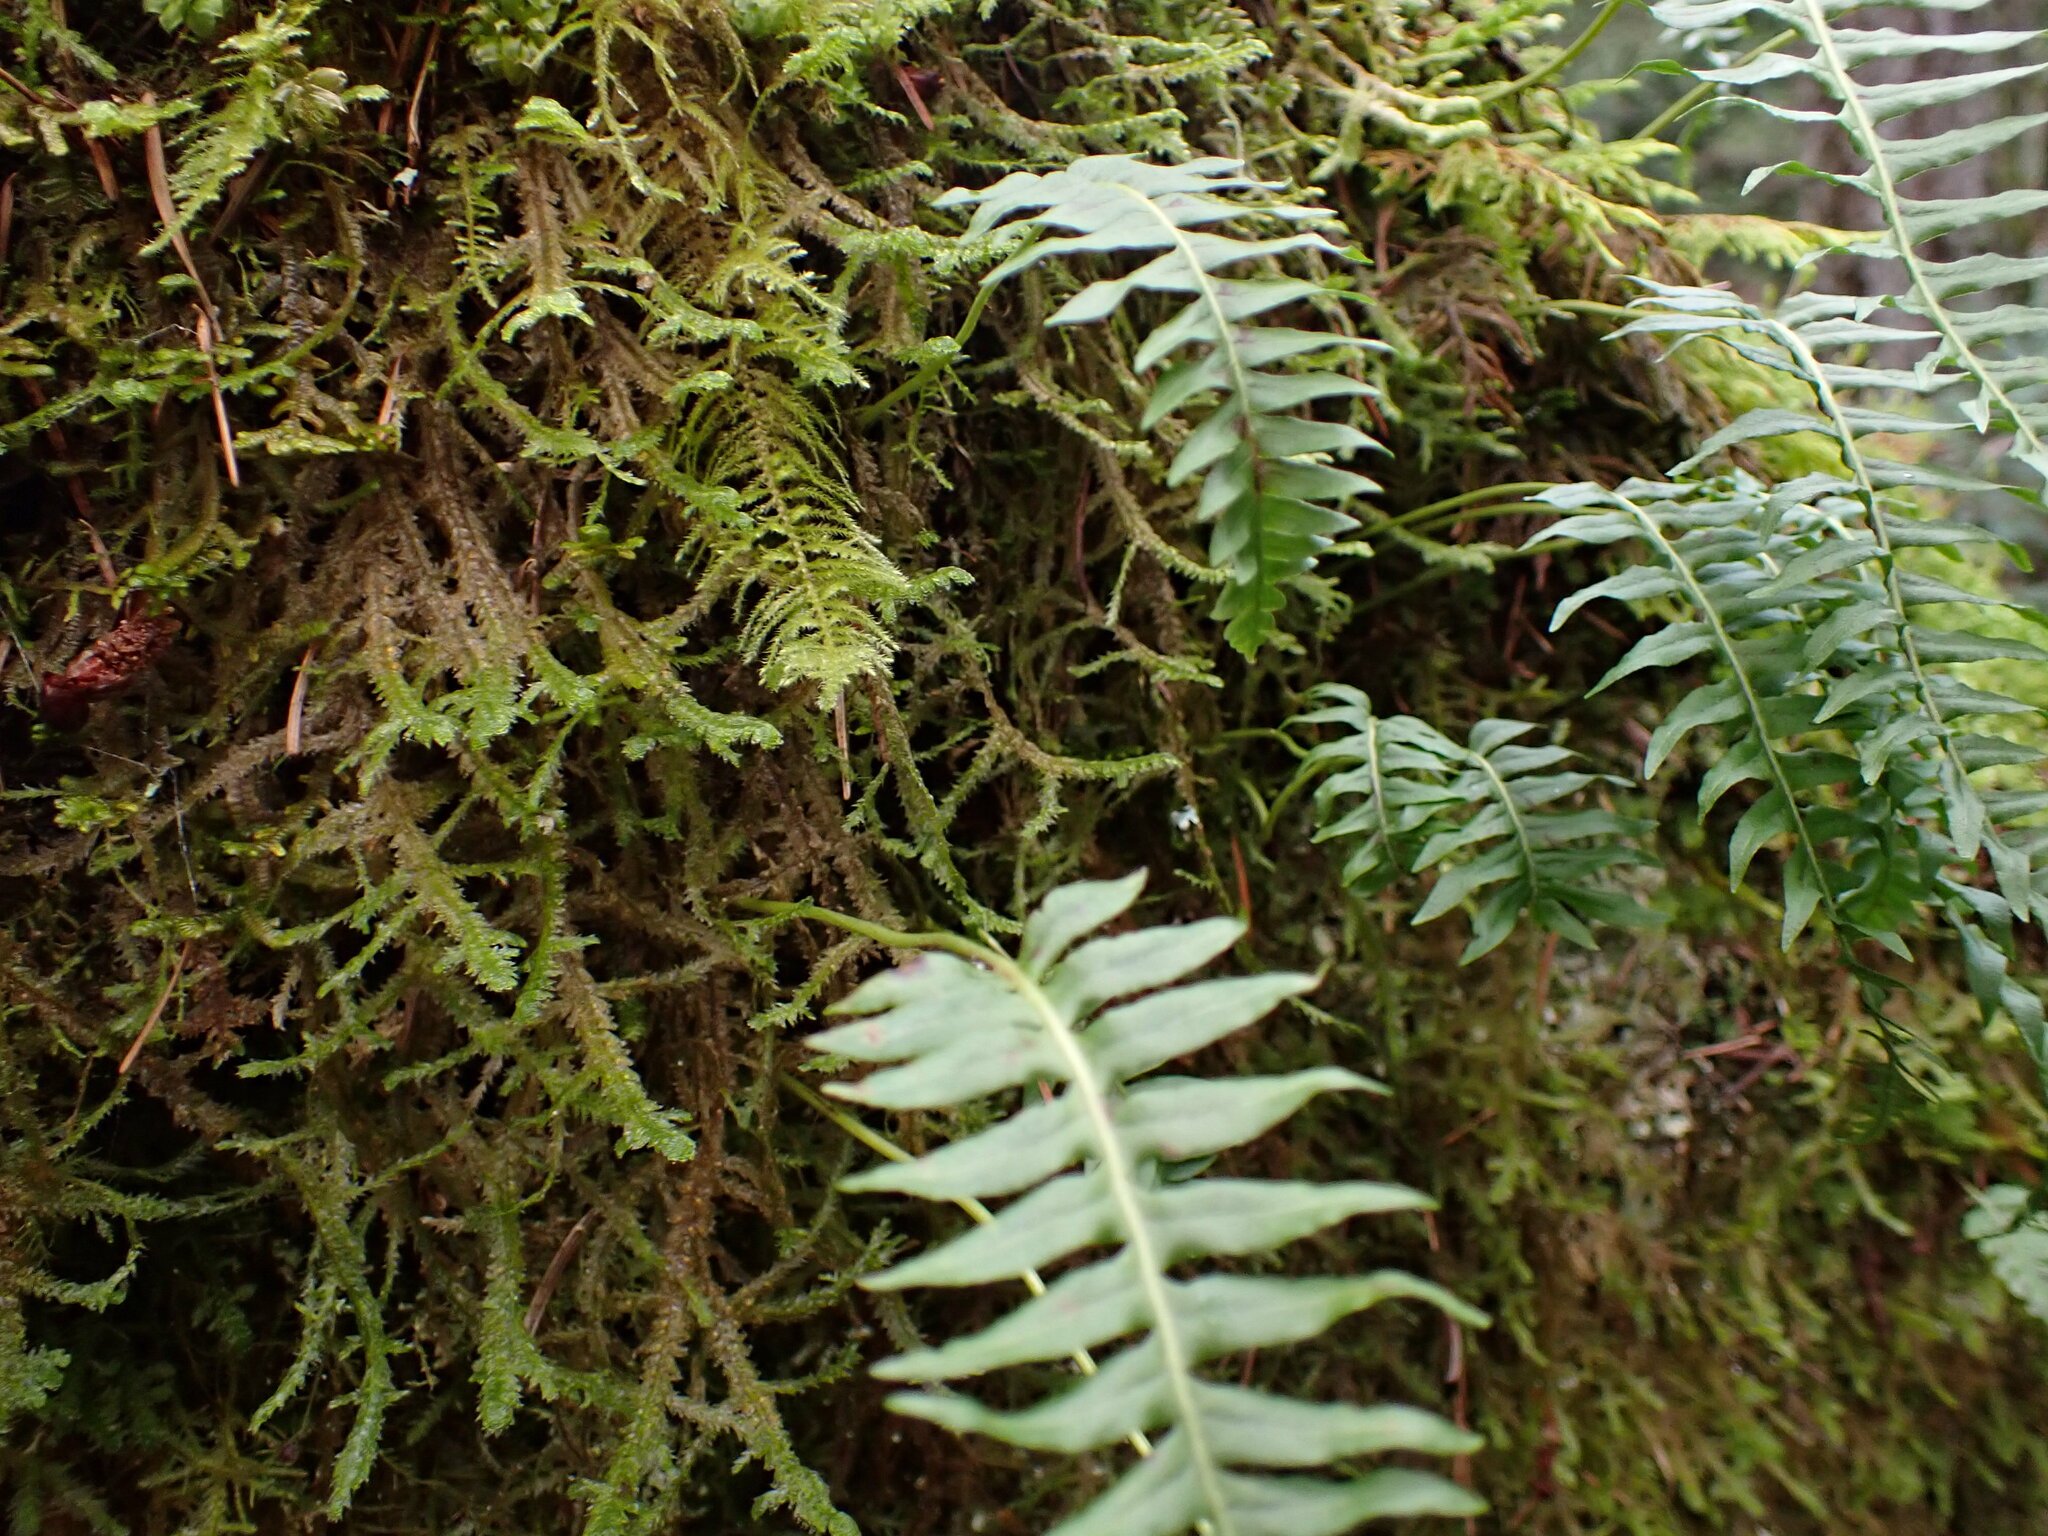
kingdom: Plantae
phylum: Tracheophyta
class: Polypodiopsida
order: Polypodiales
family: Polypodiaceae
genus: Polypodium
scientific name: Polypodium glycyrrhiza
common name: Licorice fern
